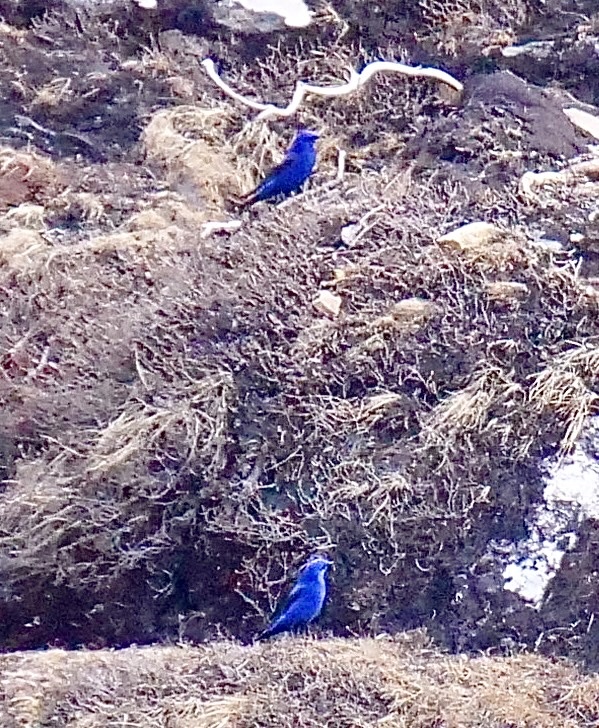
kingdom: Animalia
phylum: Chordata
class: Aves
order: Passeriformes
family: Muscicapidae
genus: Grandala
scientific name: Grandala coelicolor
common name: Grandala
